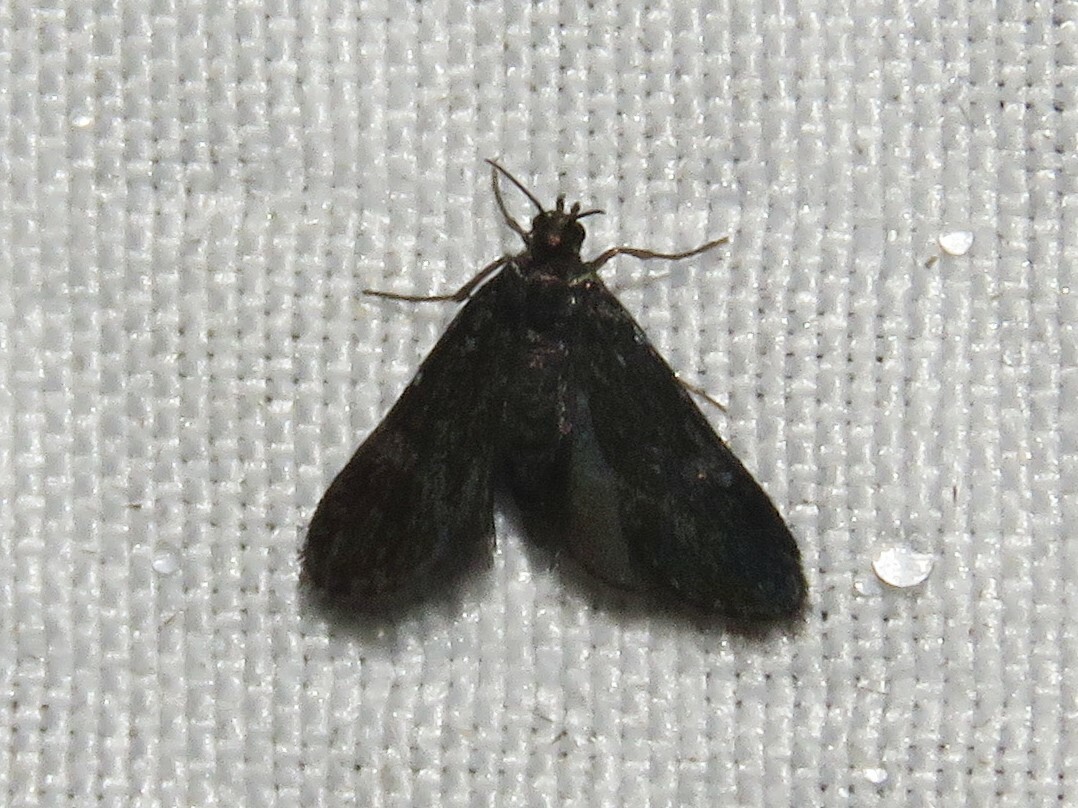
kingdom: Animalia
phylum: Arthropoda
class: Insecta
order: Lepidoptera
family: Crambidae
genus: Elophila
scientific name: Elophila tinealis
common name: Black duckweed moth
